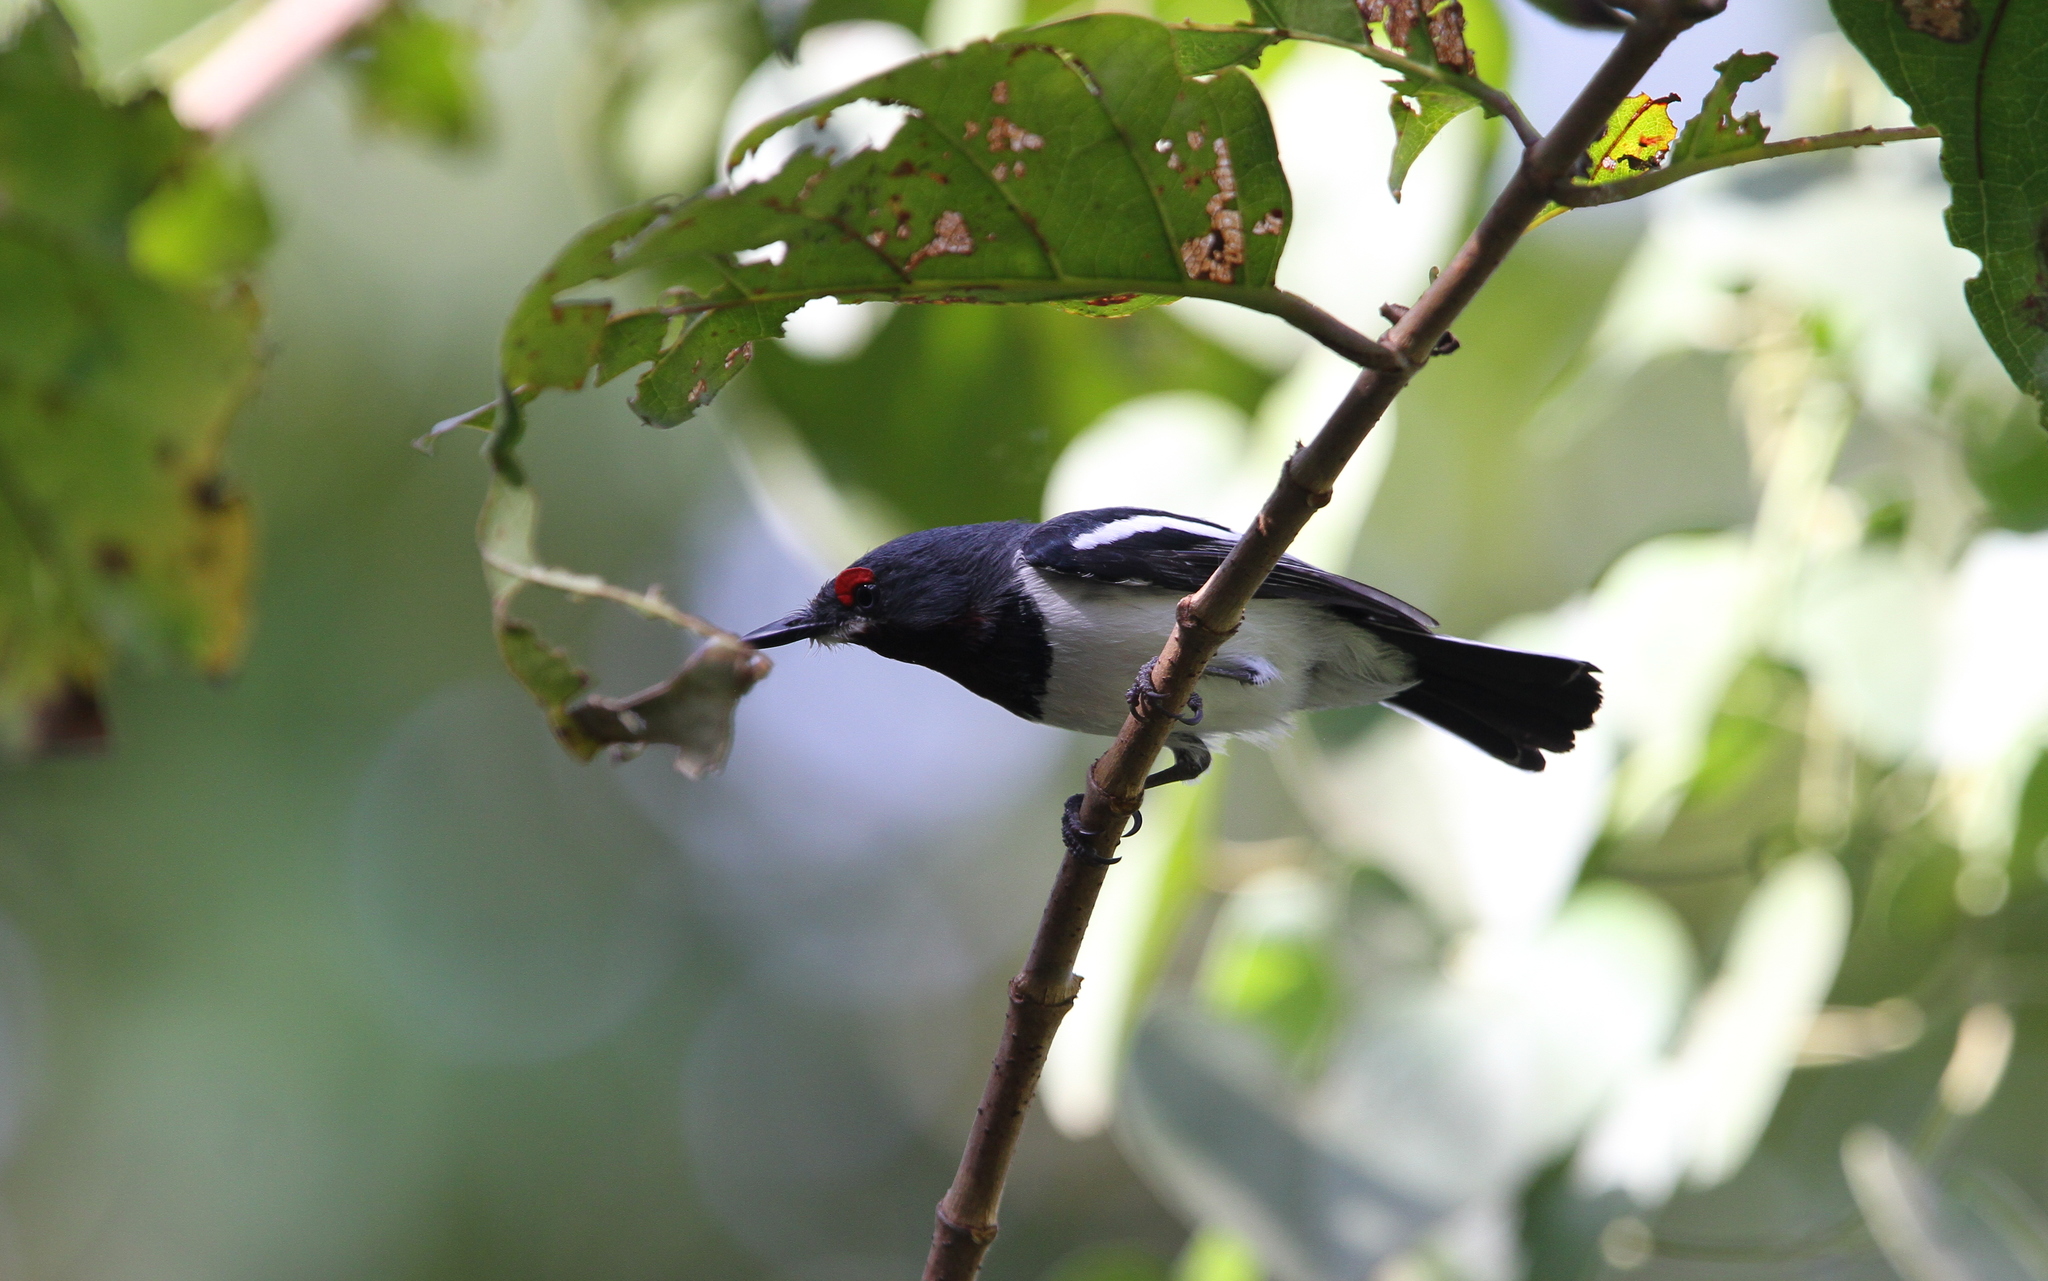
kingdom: Animalia
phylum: Chordata
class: Aves
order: Passeriformes
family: Platysteiridae
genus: Platysteira
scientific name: Platysteira cyanea
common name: Brown-throated wattle-eye
